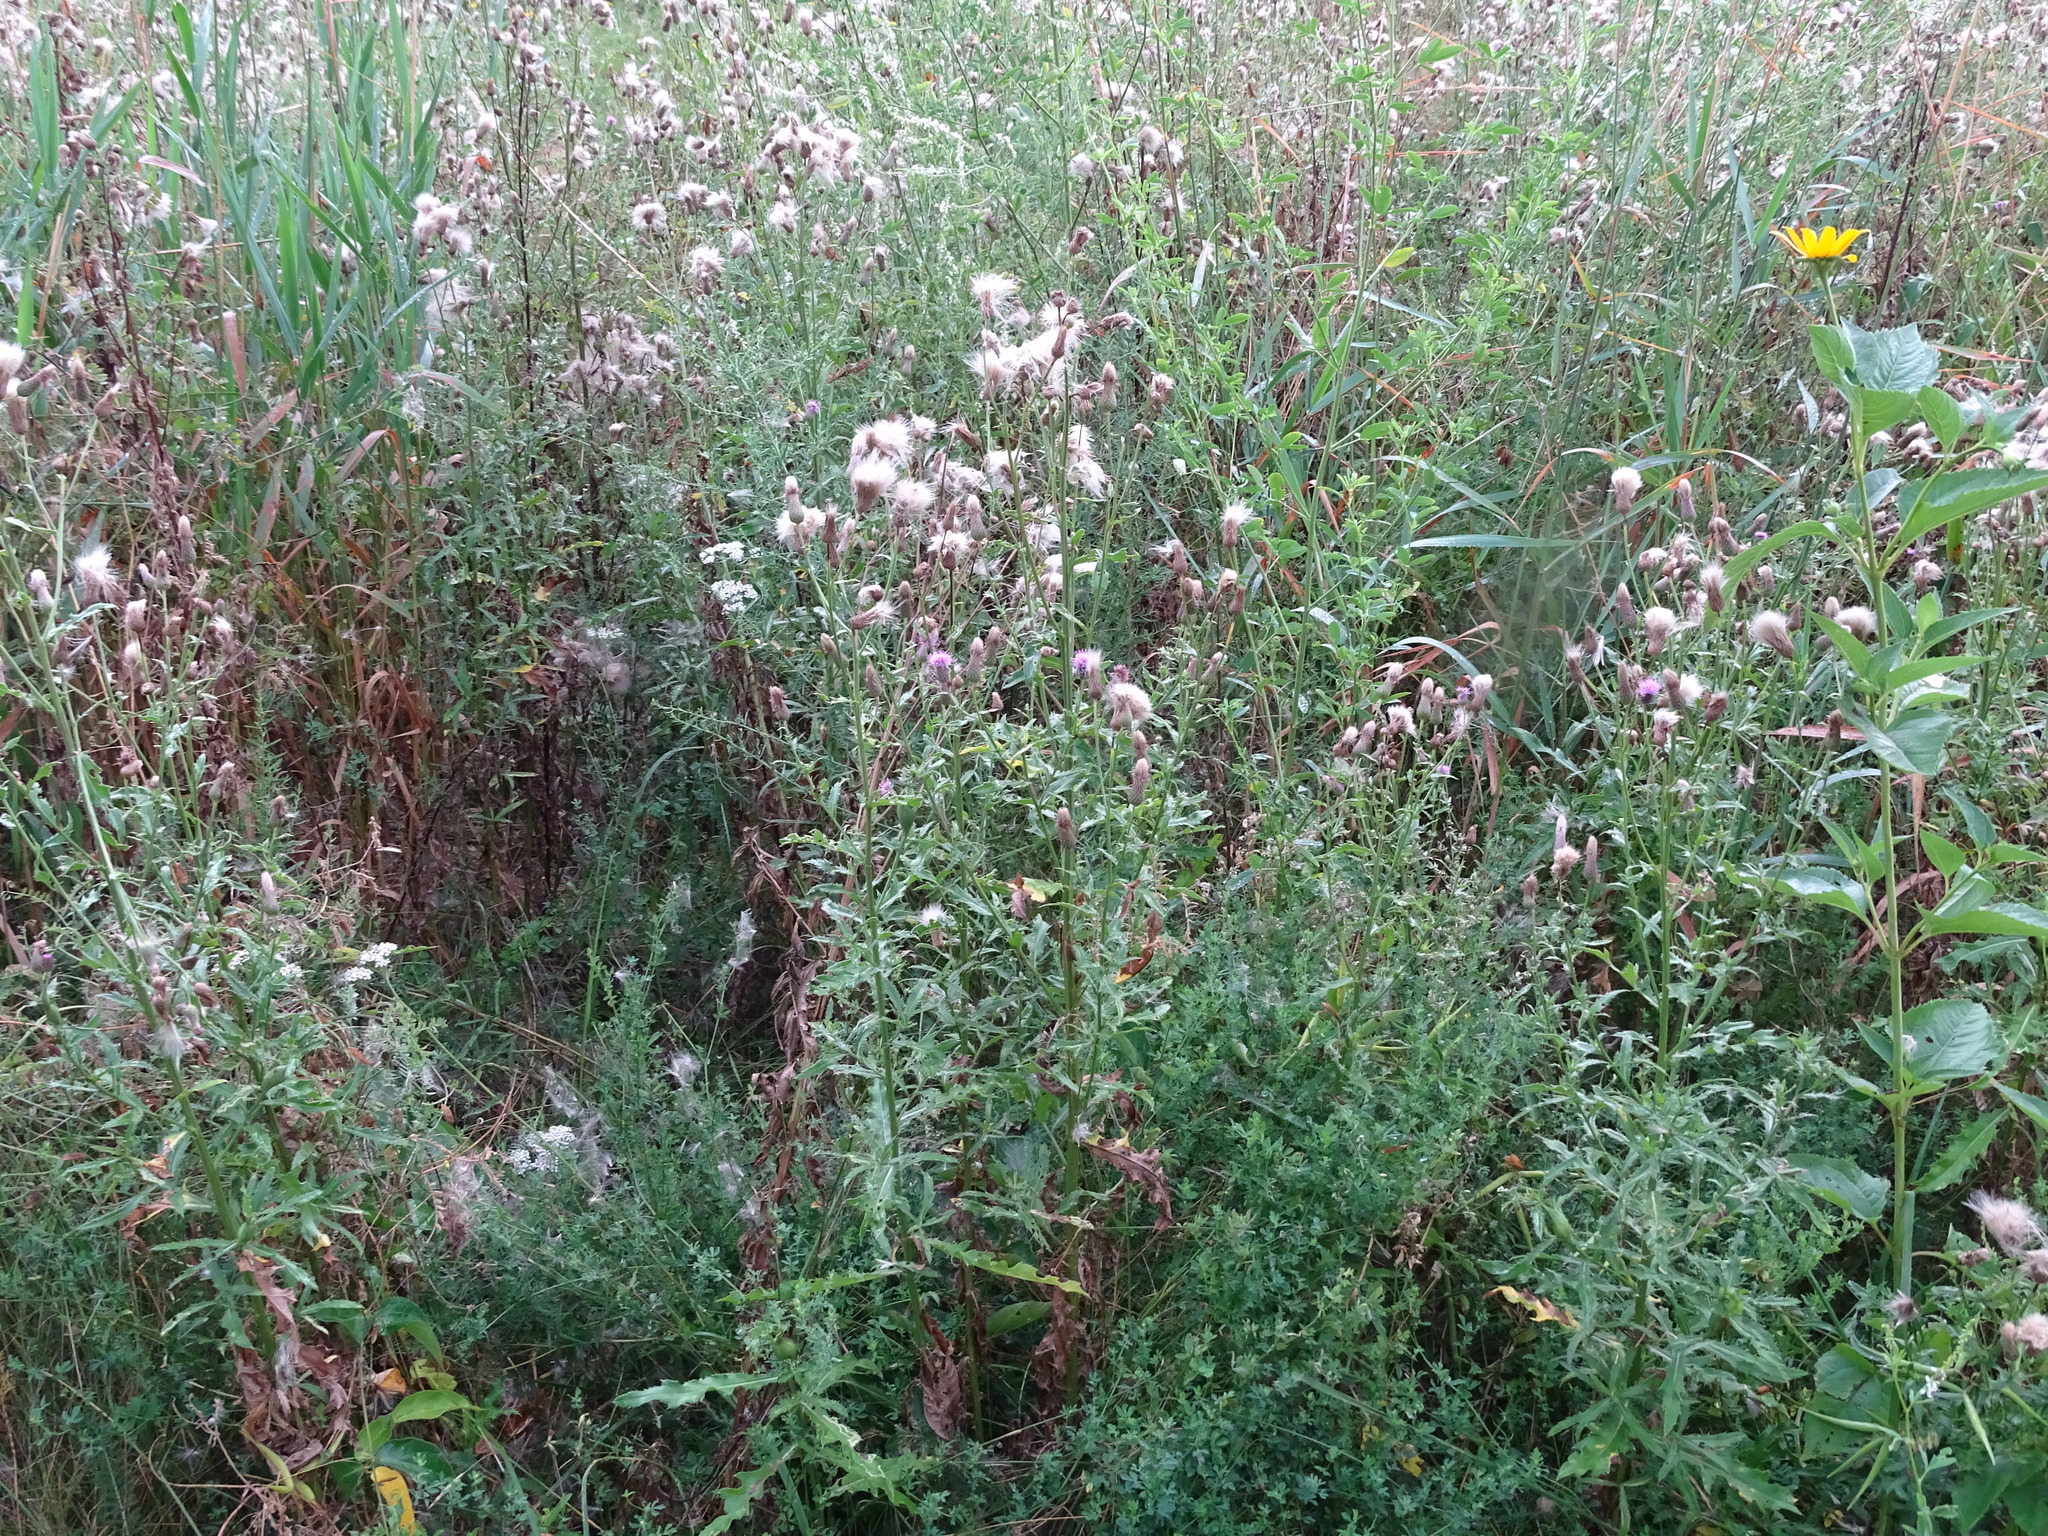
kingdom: Plantae
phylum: Tracheophyta
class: Magnoliopsida
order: Asterales
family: Asteraceae
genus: Cirsium
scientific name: Cirsium arvense
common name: Creeping thistle
